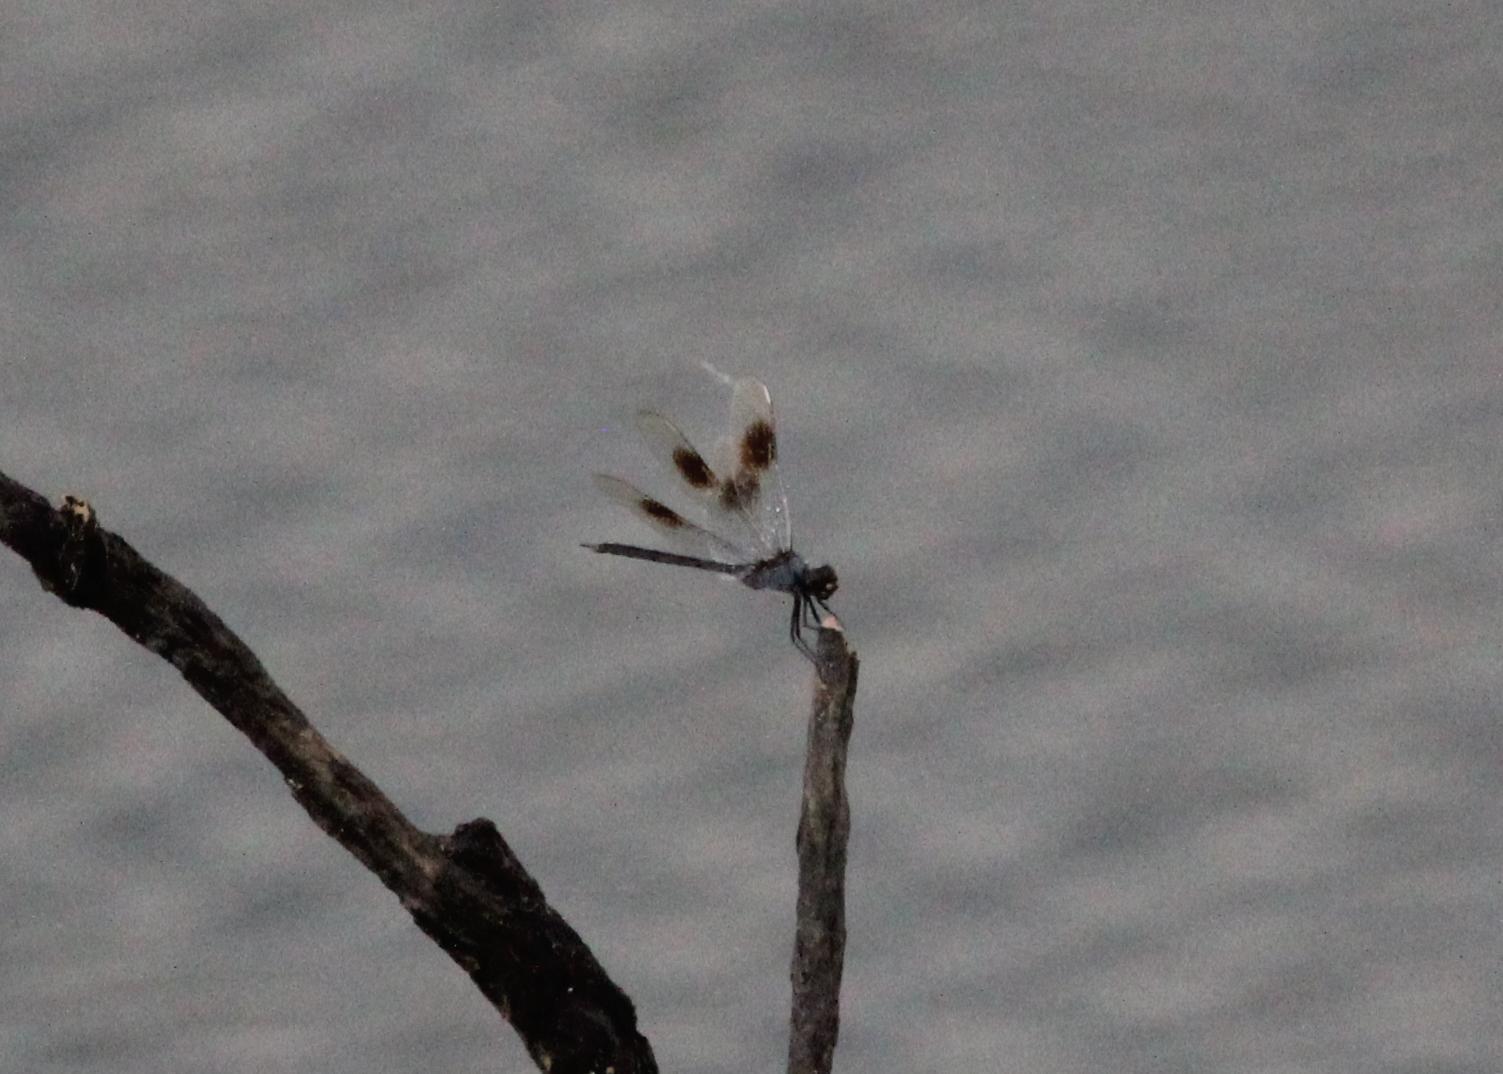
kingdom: Animalia
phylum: Arthropoda
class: Insecta
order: Odonata
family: Libellulidae
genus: Brachymesia
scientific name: Brachymesia gravida
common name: Four-spotted pennant
